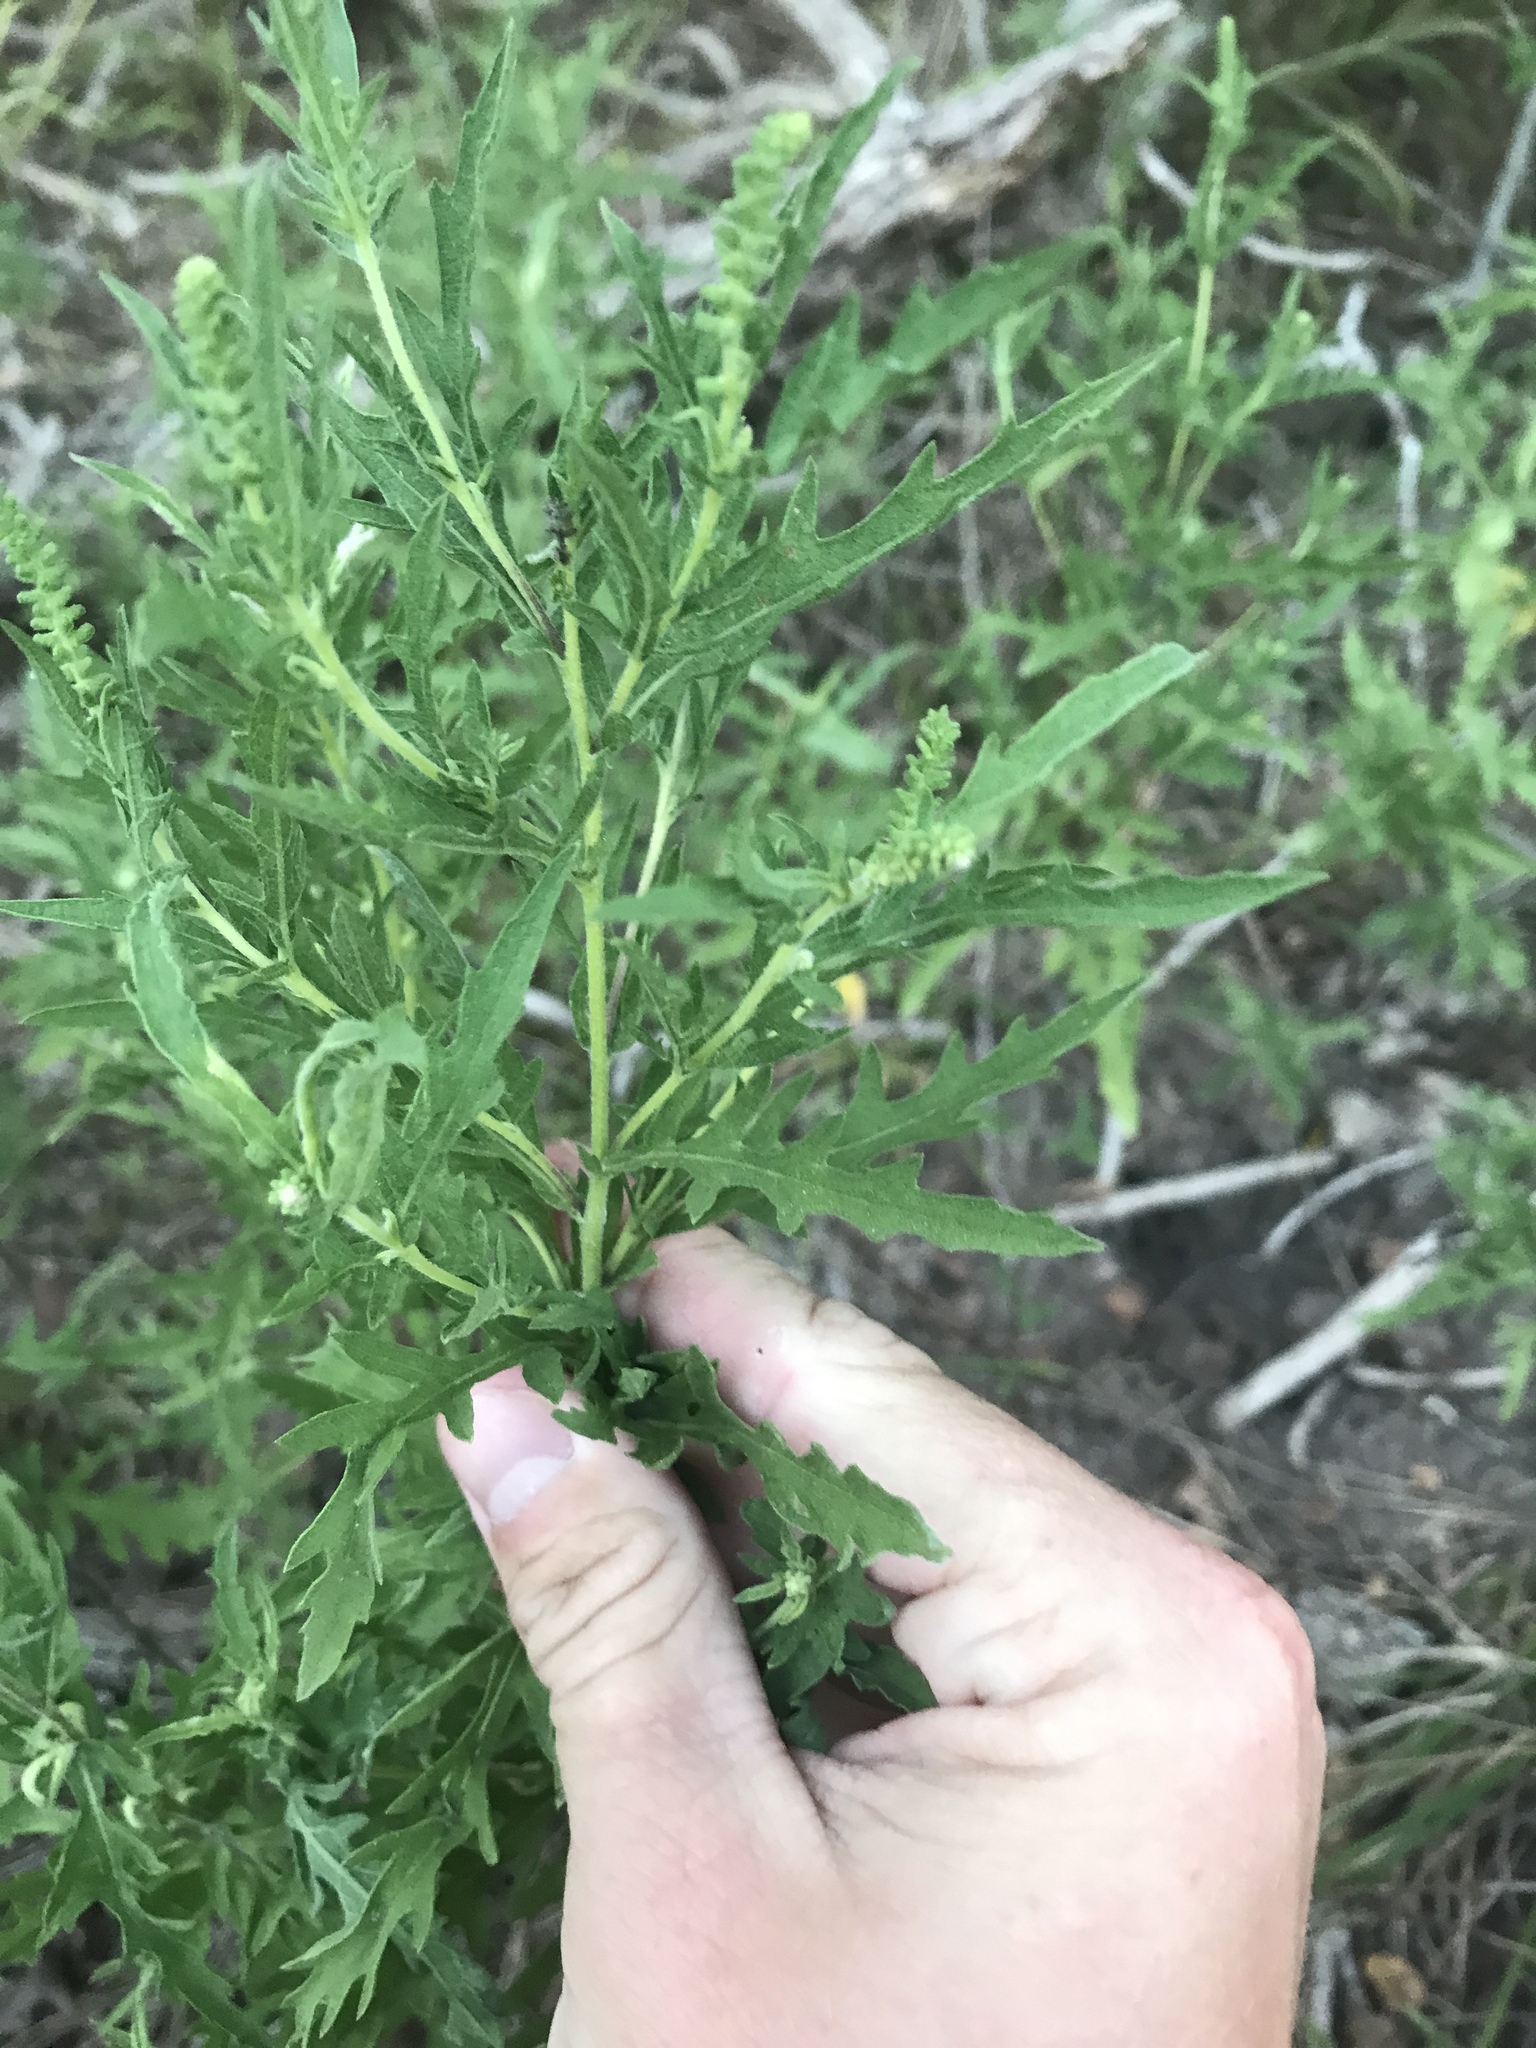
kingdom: Plantae
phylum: Tracheophyta
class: Magnoliopsida
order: Asterales
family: Asteraceae
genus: Ambrosia
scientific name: Ambrosia psilostachya
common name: Perennial ragweed
